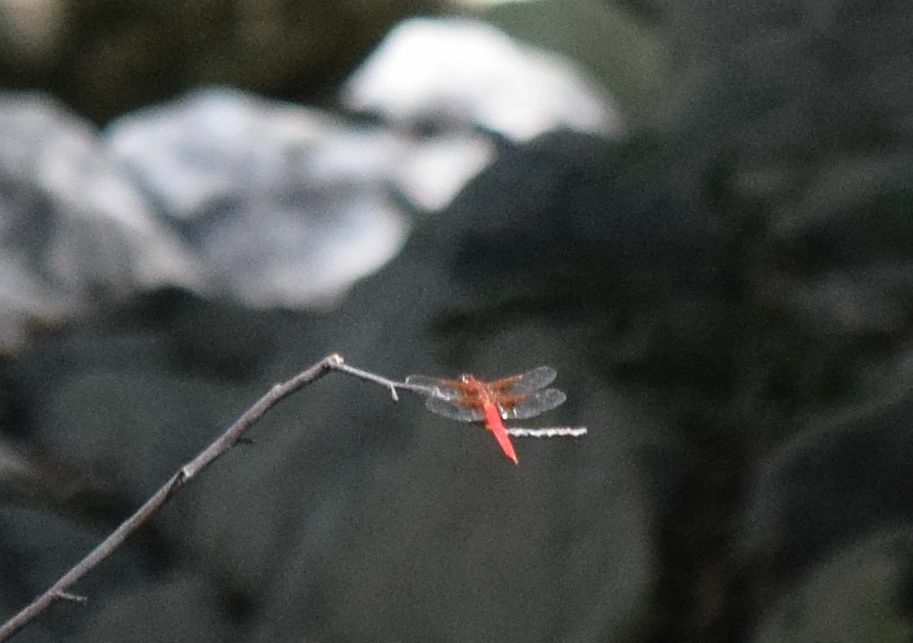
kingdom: Animalia
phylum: Arthropoda
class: Insecta
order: Odonata
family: Libellulidae
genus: Libellula
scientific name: Libellula croceipennis
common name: Neon skimmer
